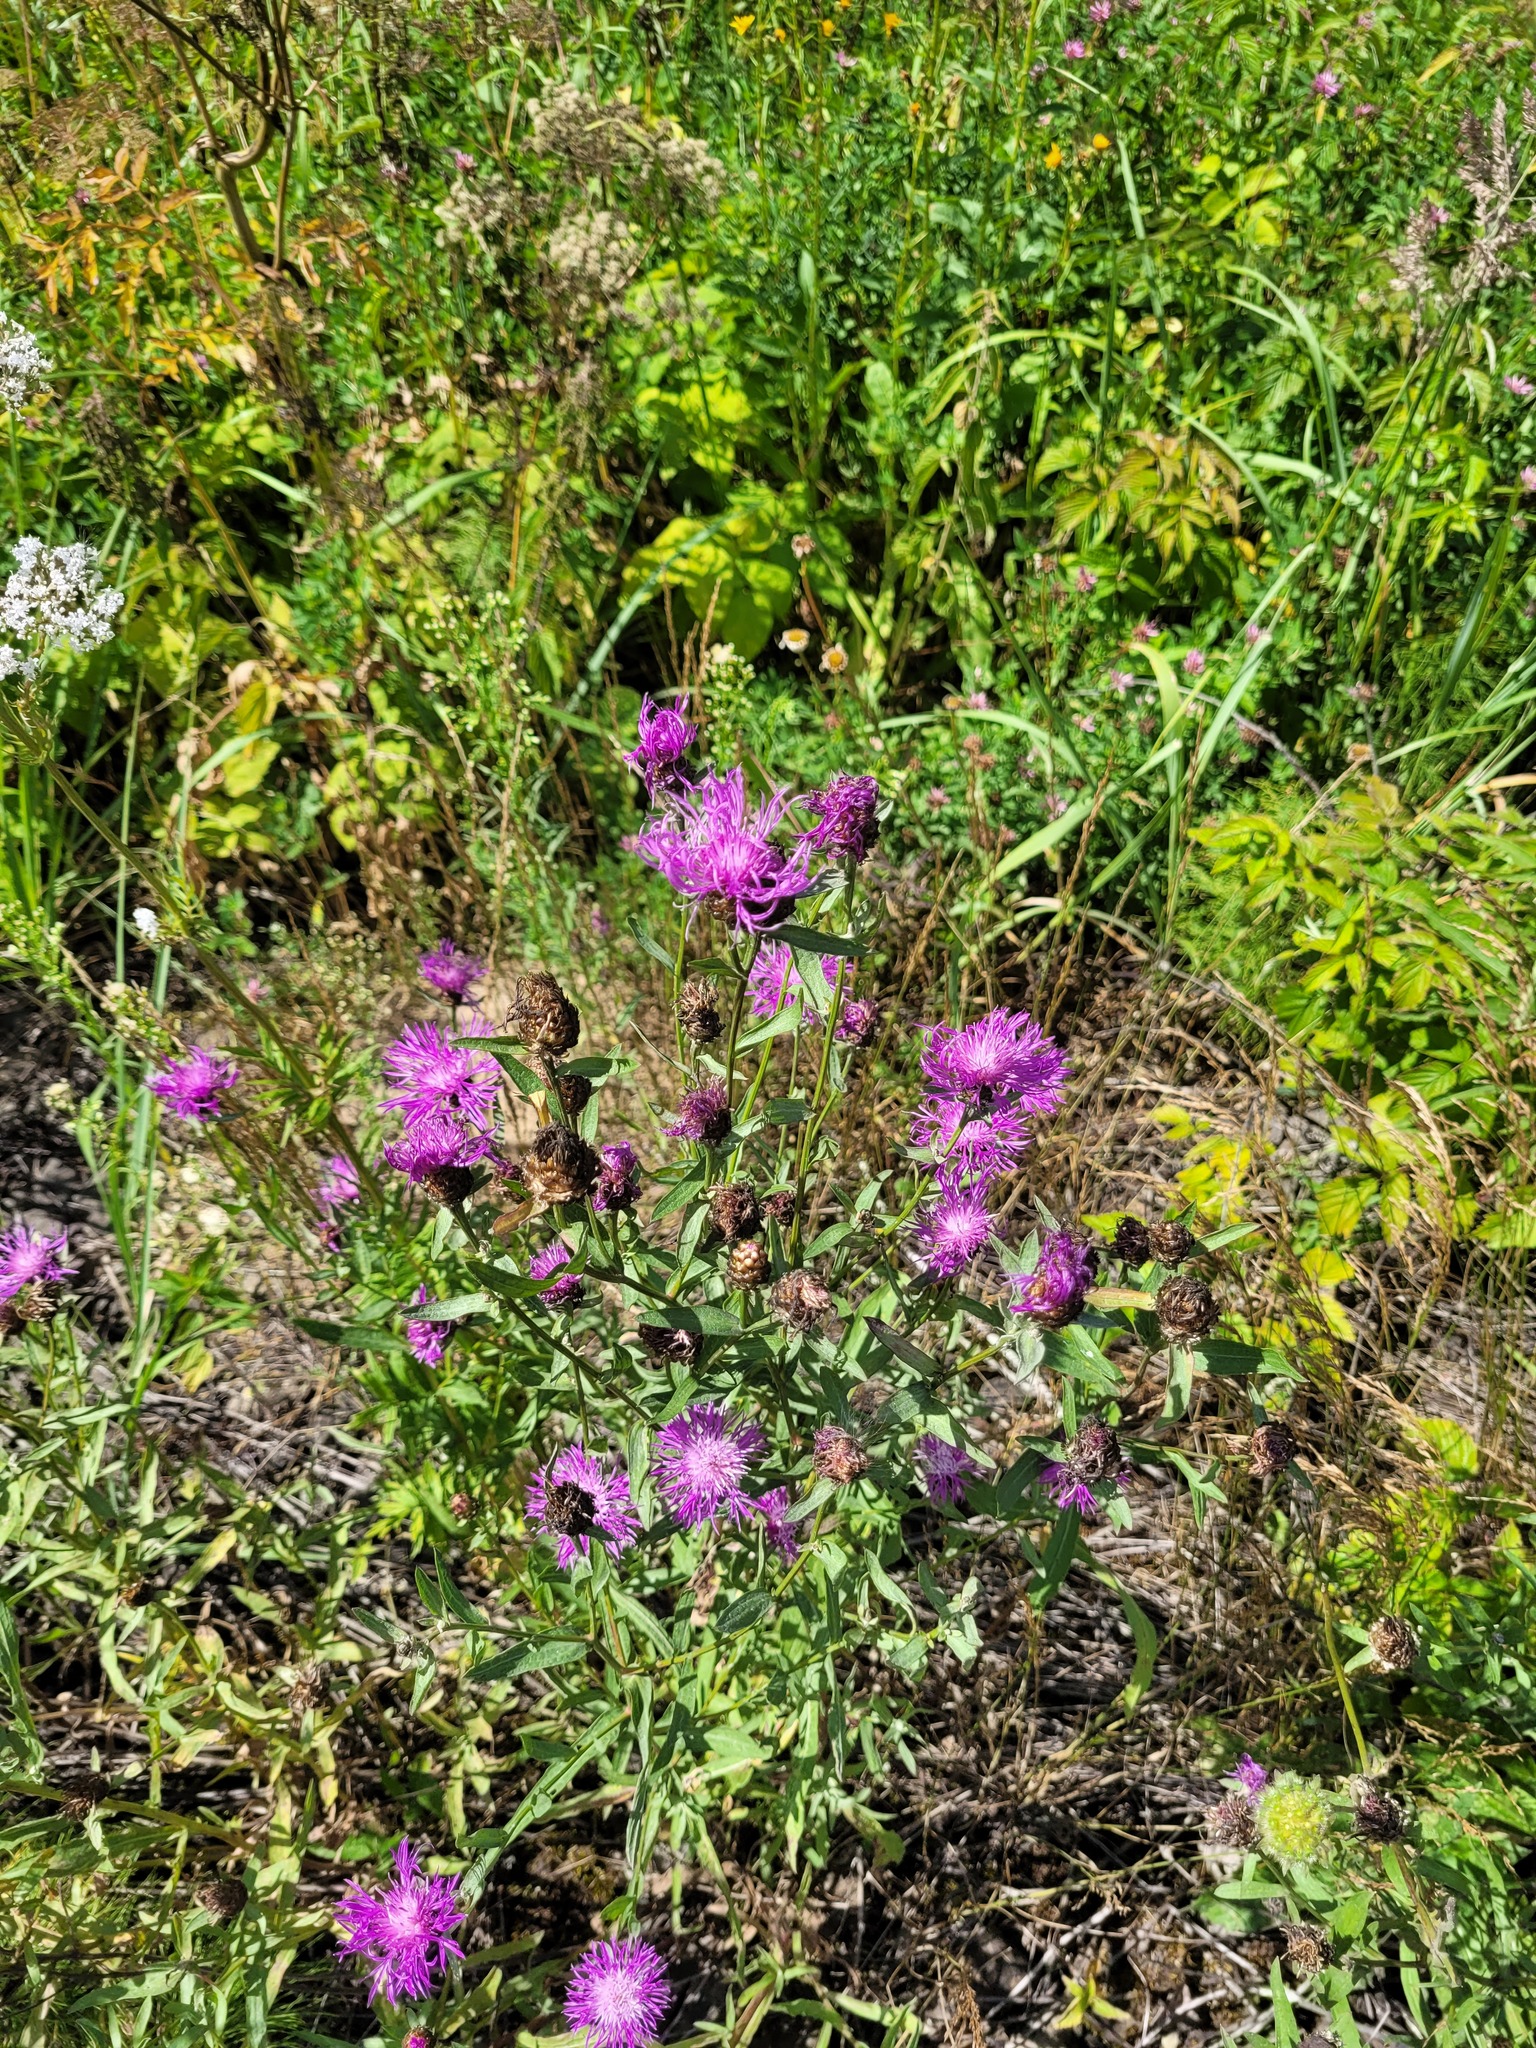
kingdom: Plantae
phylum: Tracheophyta
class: Magnoliopsida
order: Asterales
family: Asteraceae
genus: Centaurea
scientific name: Centaurea jacea
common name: Brown knapweed
